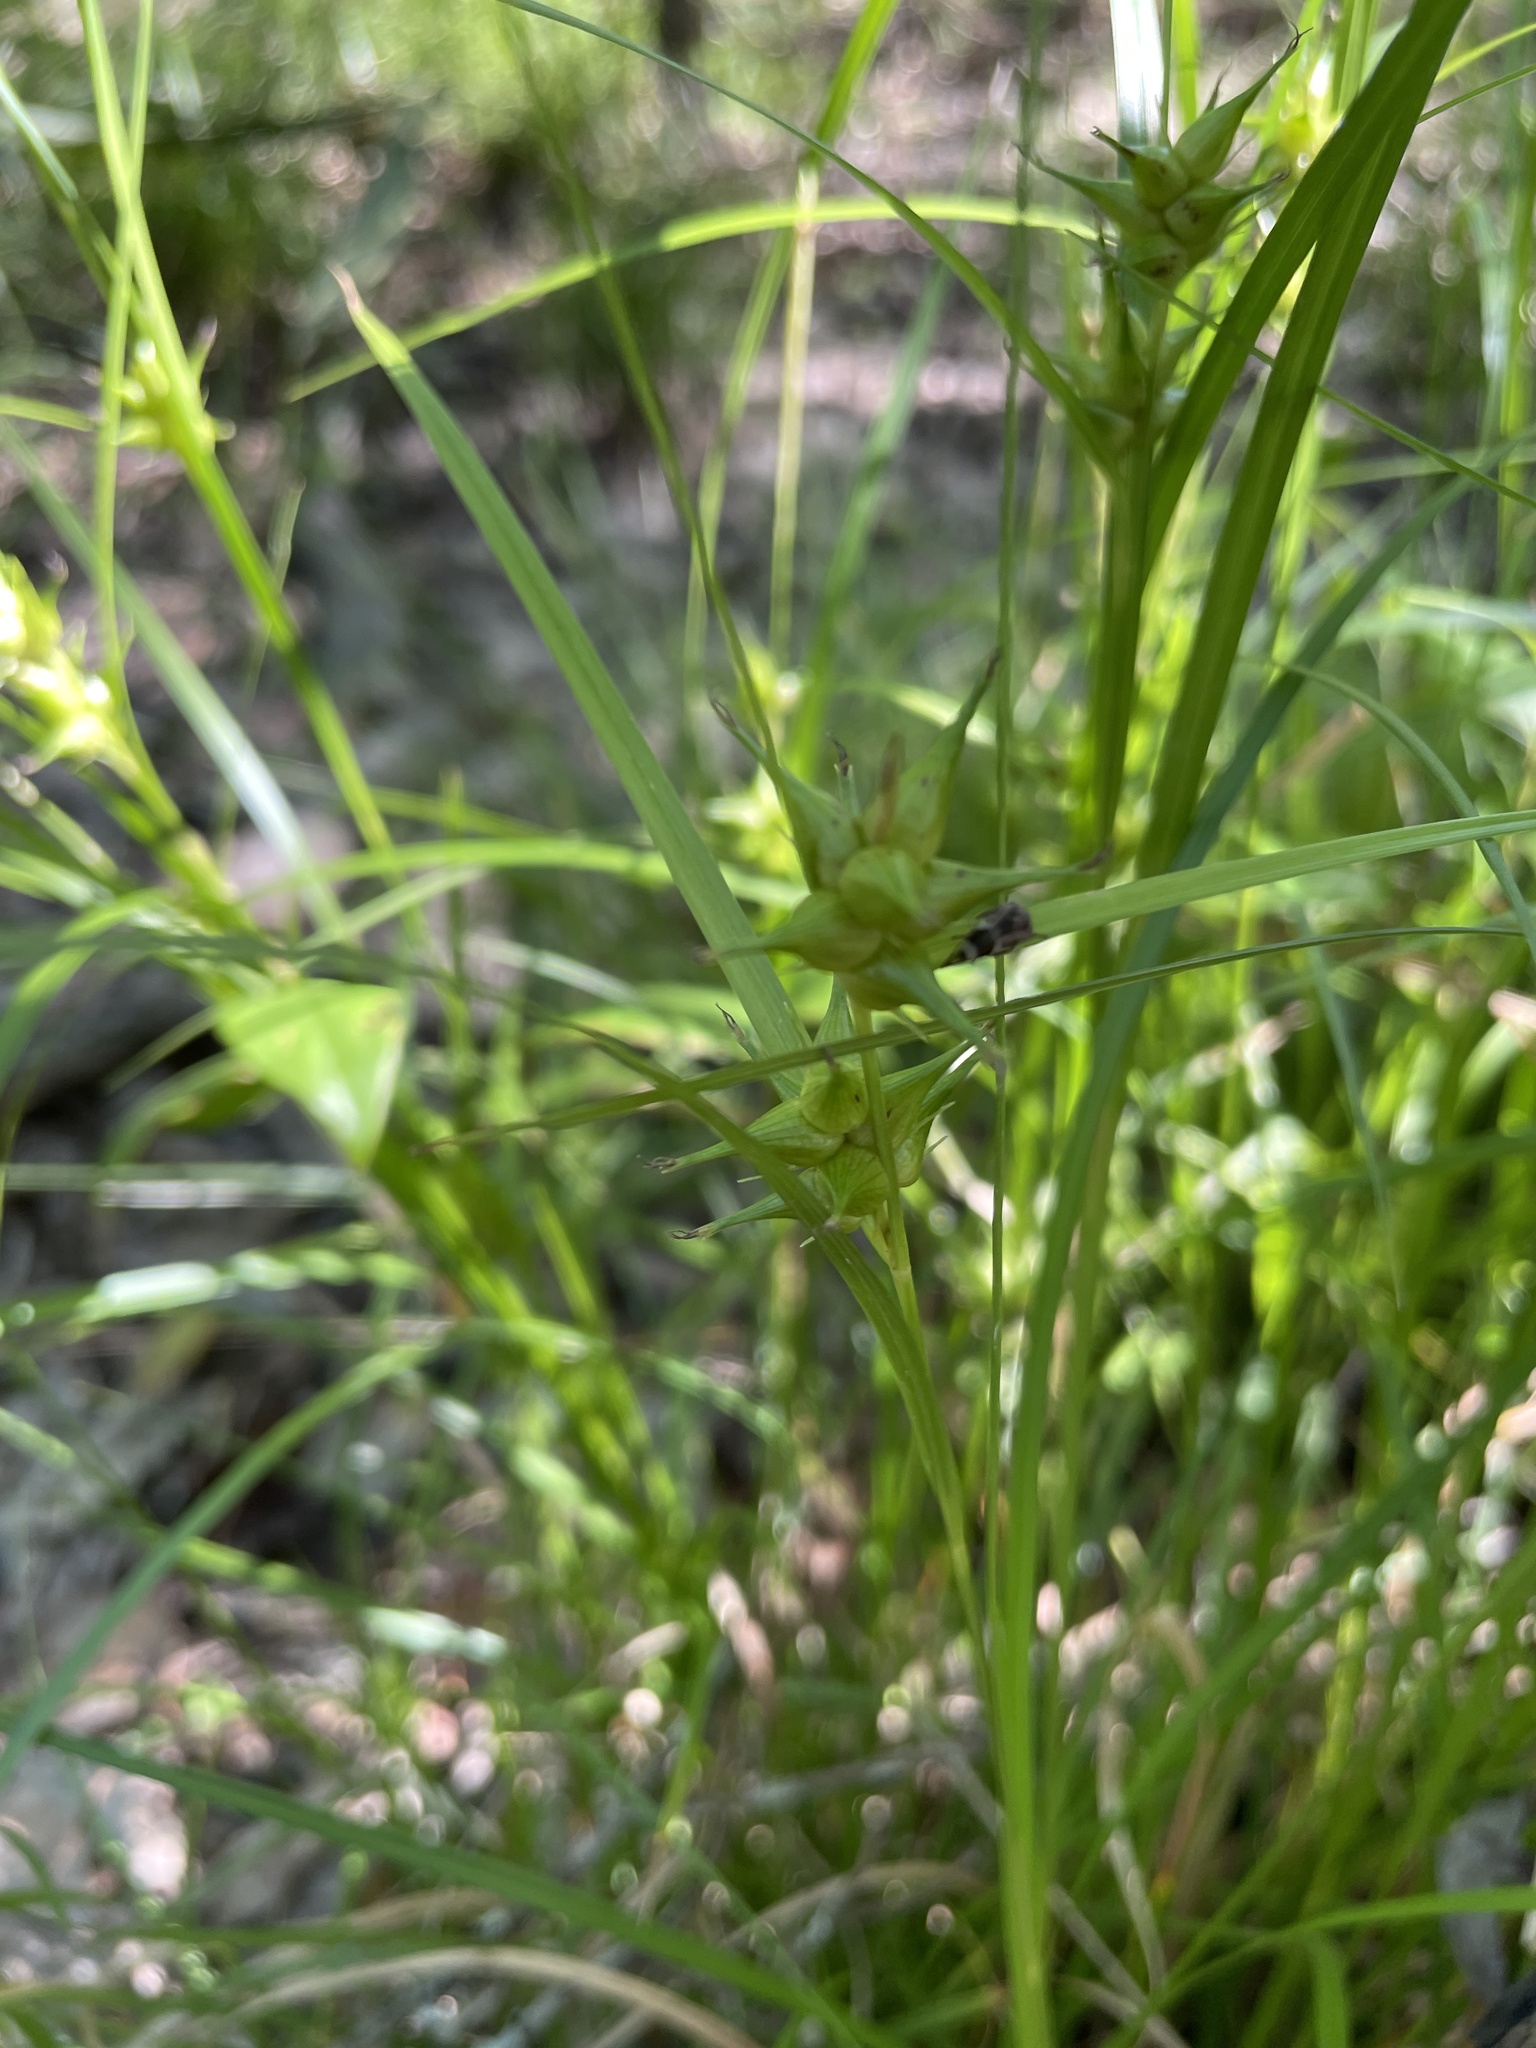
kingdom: Plantae
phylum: Tracheophyta
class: Liliopsida
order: Poales
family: Cyperaceae
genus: Carex
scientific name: Carex intumescens
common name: Greater bladder sedge
